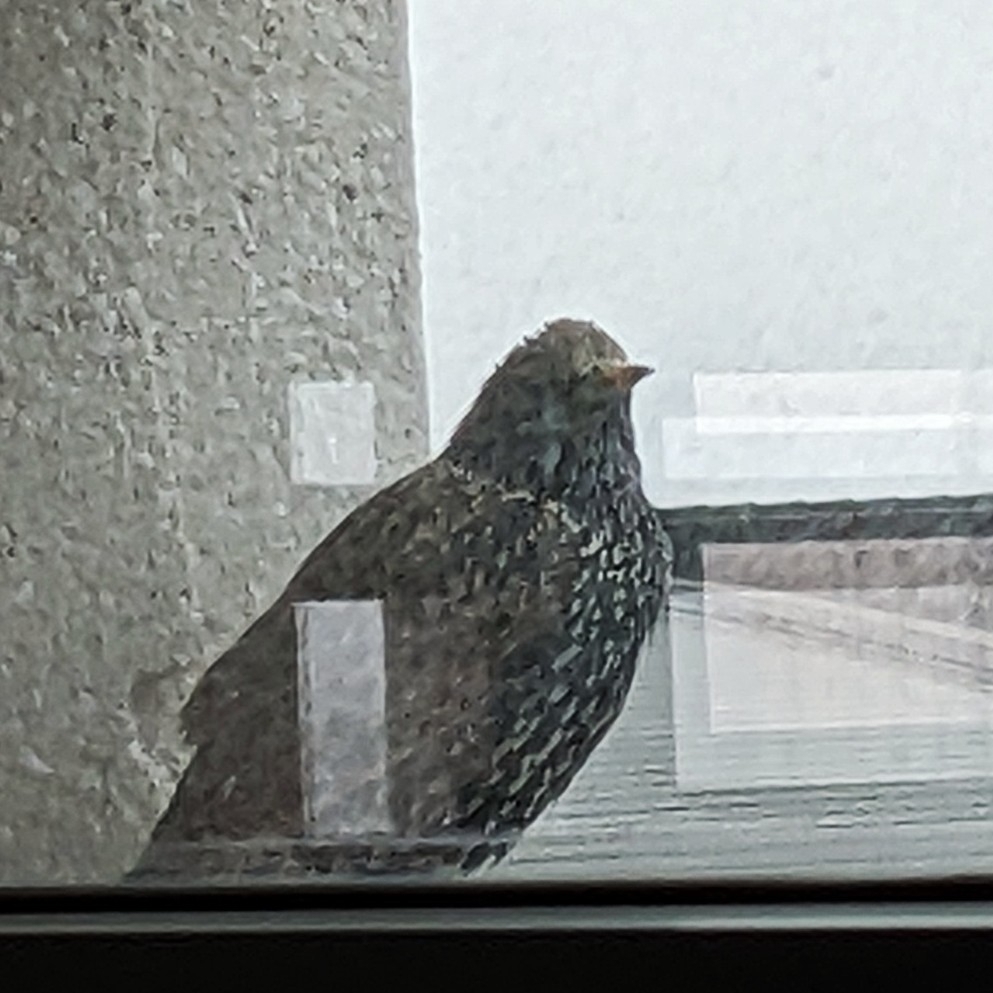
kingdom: Animalia
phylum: Chordata
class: Aves
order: Passeriformes
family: Sturnidae
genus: Sturnus
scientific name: Sturnus vulgaris
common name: Common starling
